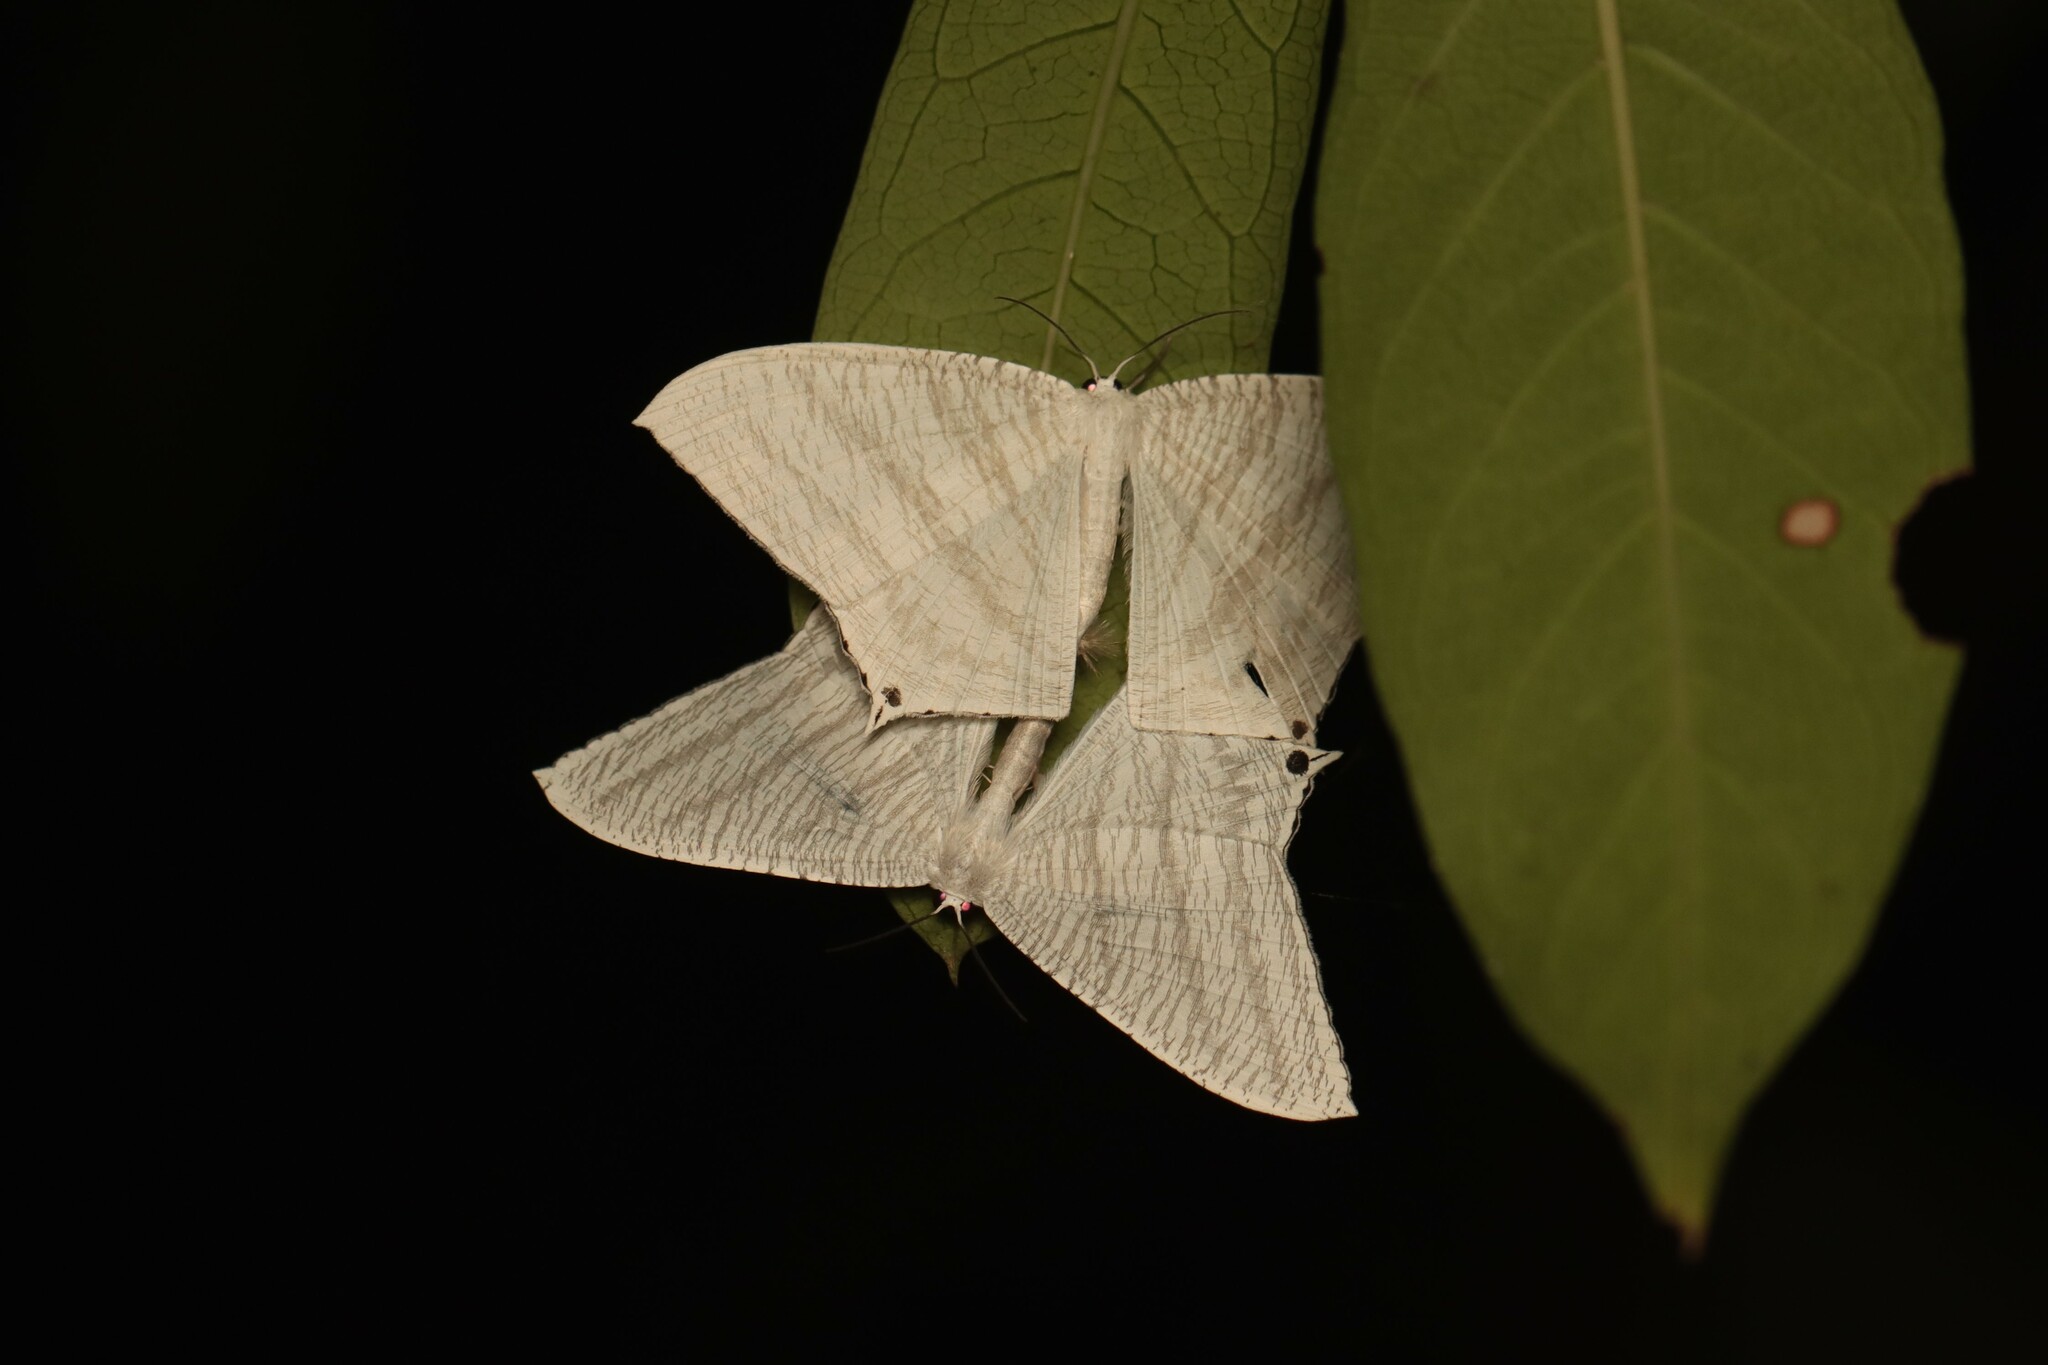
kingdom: Animalia
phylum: Arthropoda
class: Insecta
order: Lepidoptera
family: Uraniidae
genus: Micronia
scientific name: Micronia aculeata
